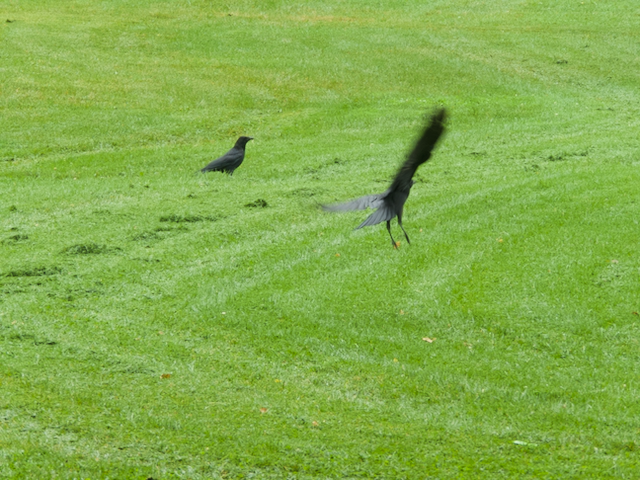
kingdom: Animalia
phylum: Chordata
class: Aves
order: Passeriformes
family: Corvidae
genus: Corvus
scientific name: Corvus brachyrhynchos
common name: American crow
